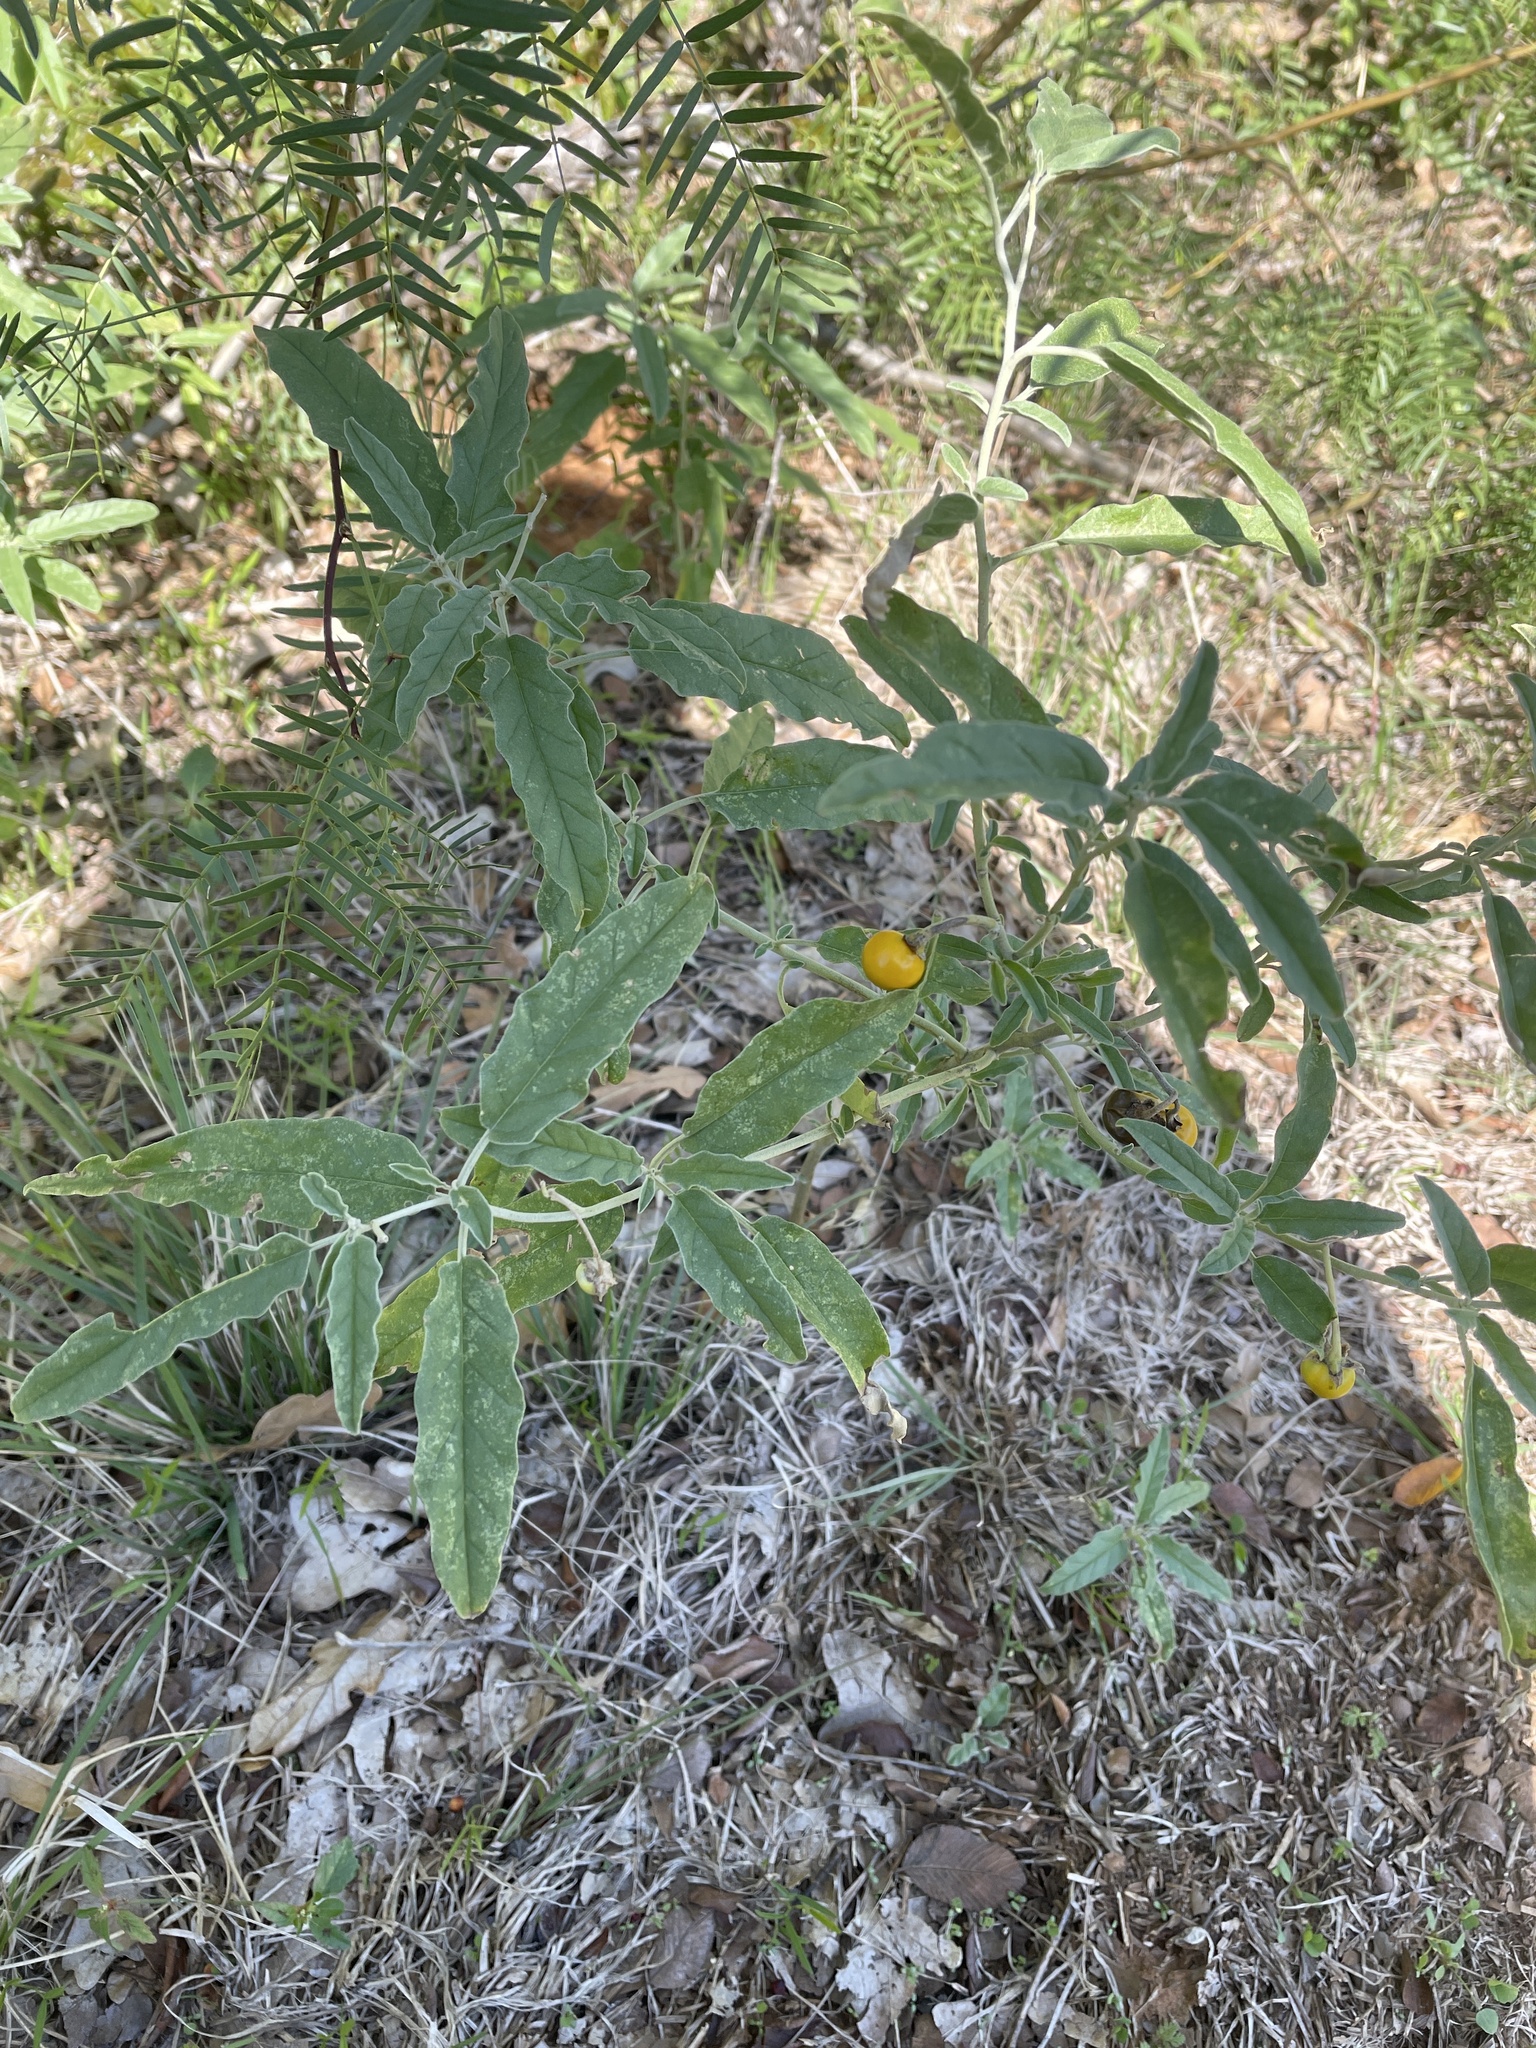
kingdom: Plantae
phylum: Tracheophyta
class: Magnoliopsida
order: Solanales
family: Solanaceae
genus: Solanum
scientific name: Solanum elaeagnifolium
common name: Silverleaf nightshade
